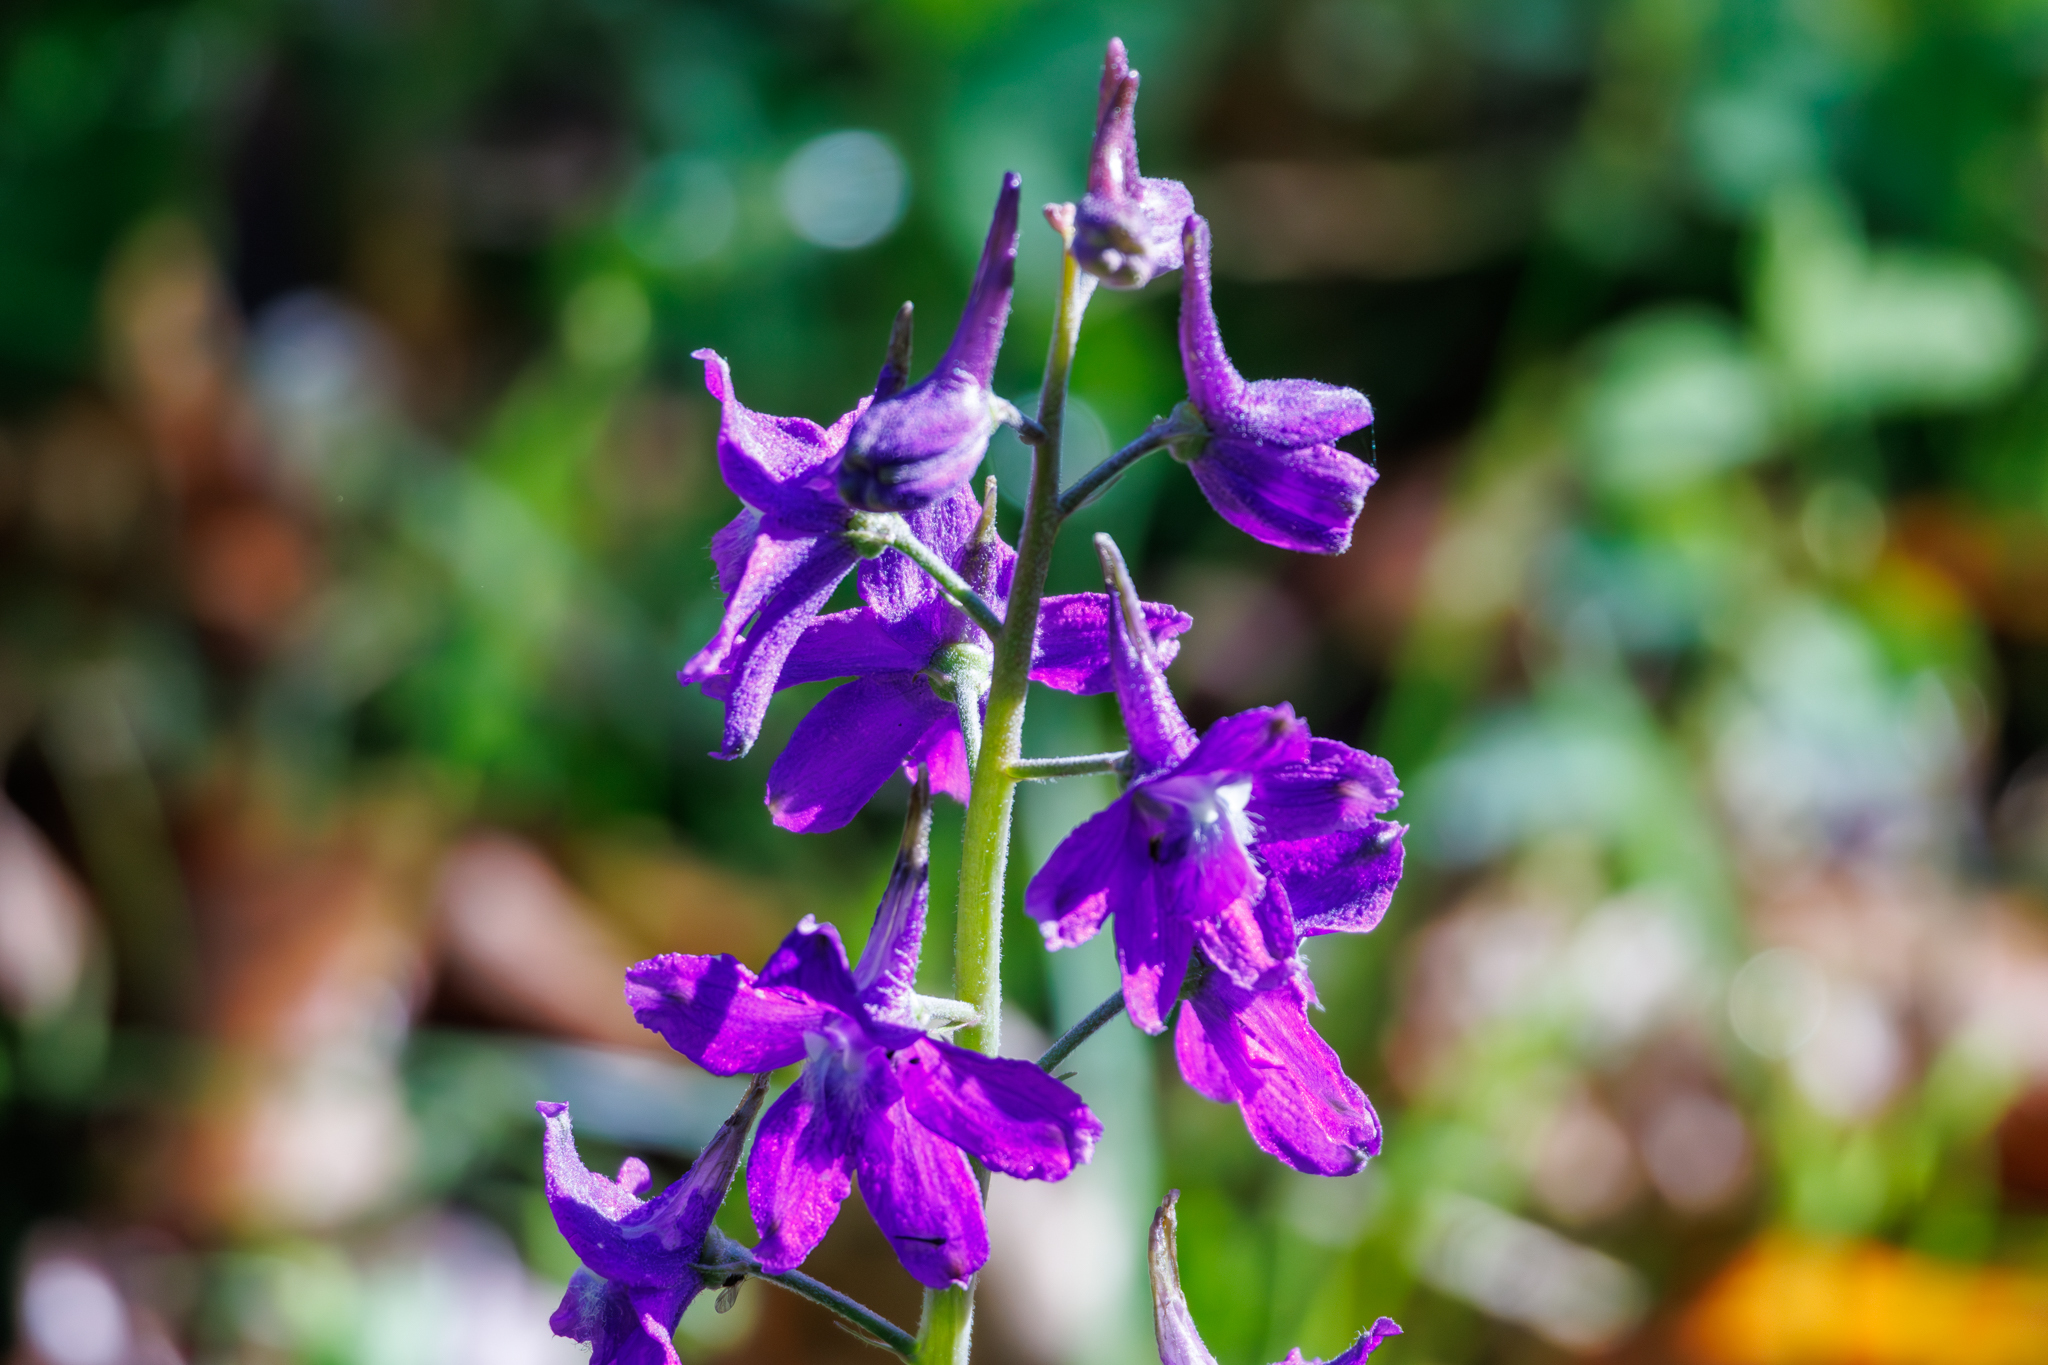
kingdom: Plantae
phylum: Tracheophyta
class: Magnoliopsida
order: Ranunculales
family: Ranunculaceae
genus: Delphinium
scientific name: Delphinium tricorne
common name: Dwarf larkspur
